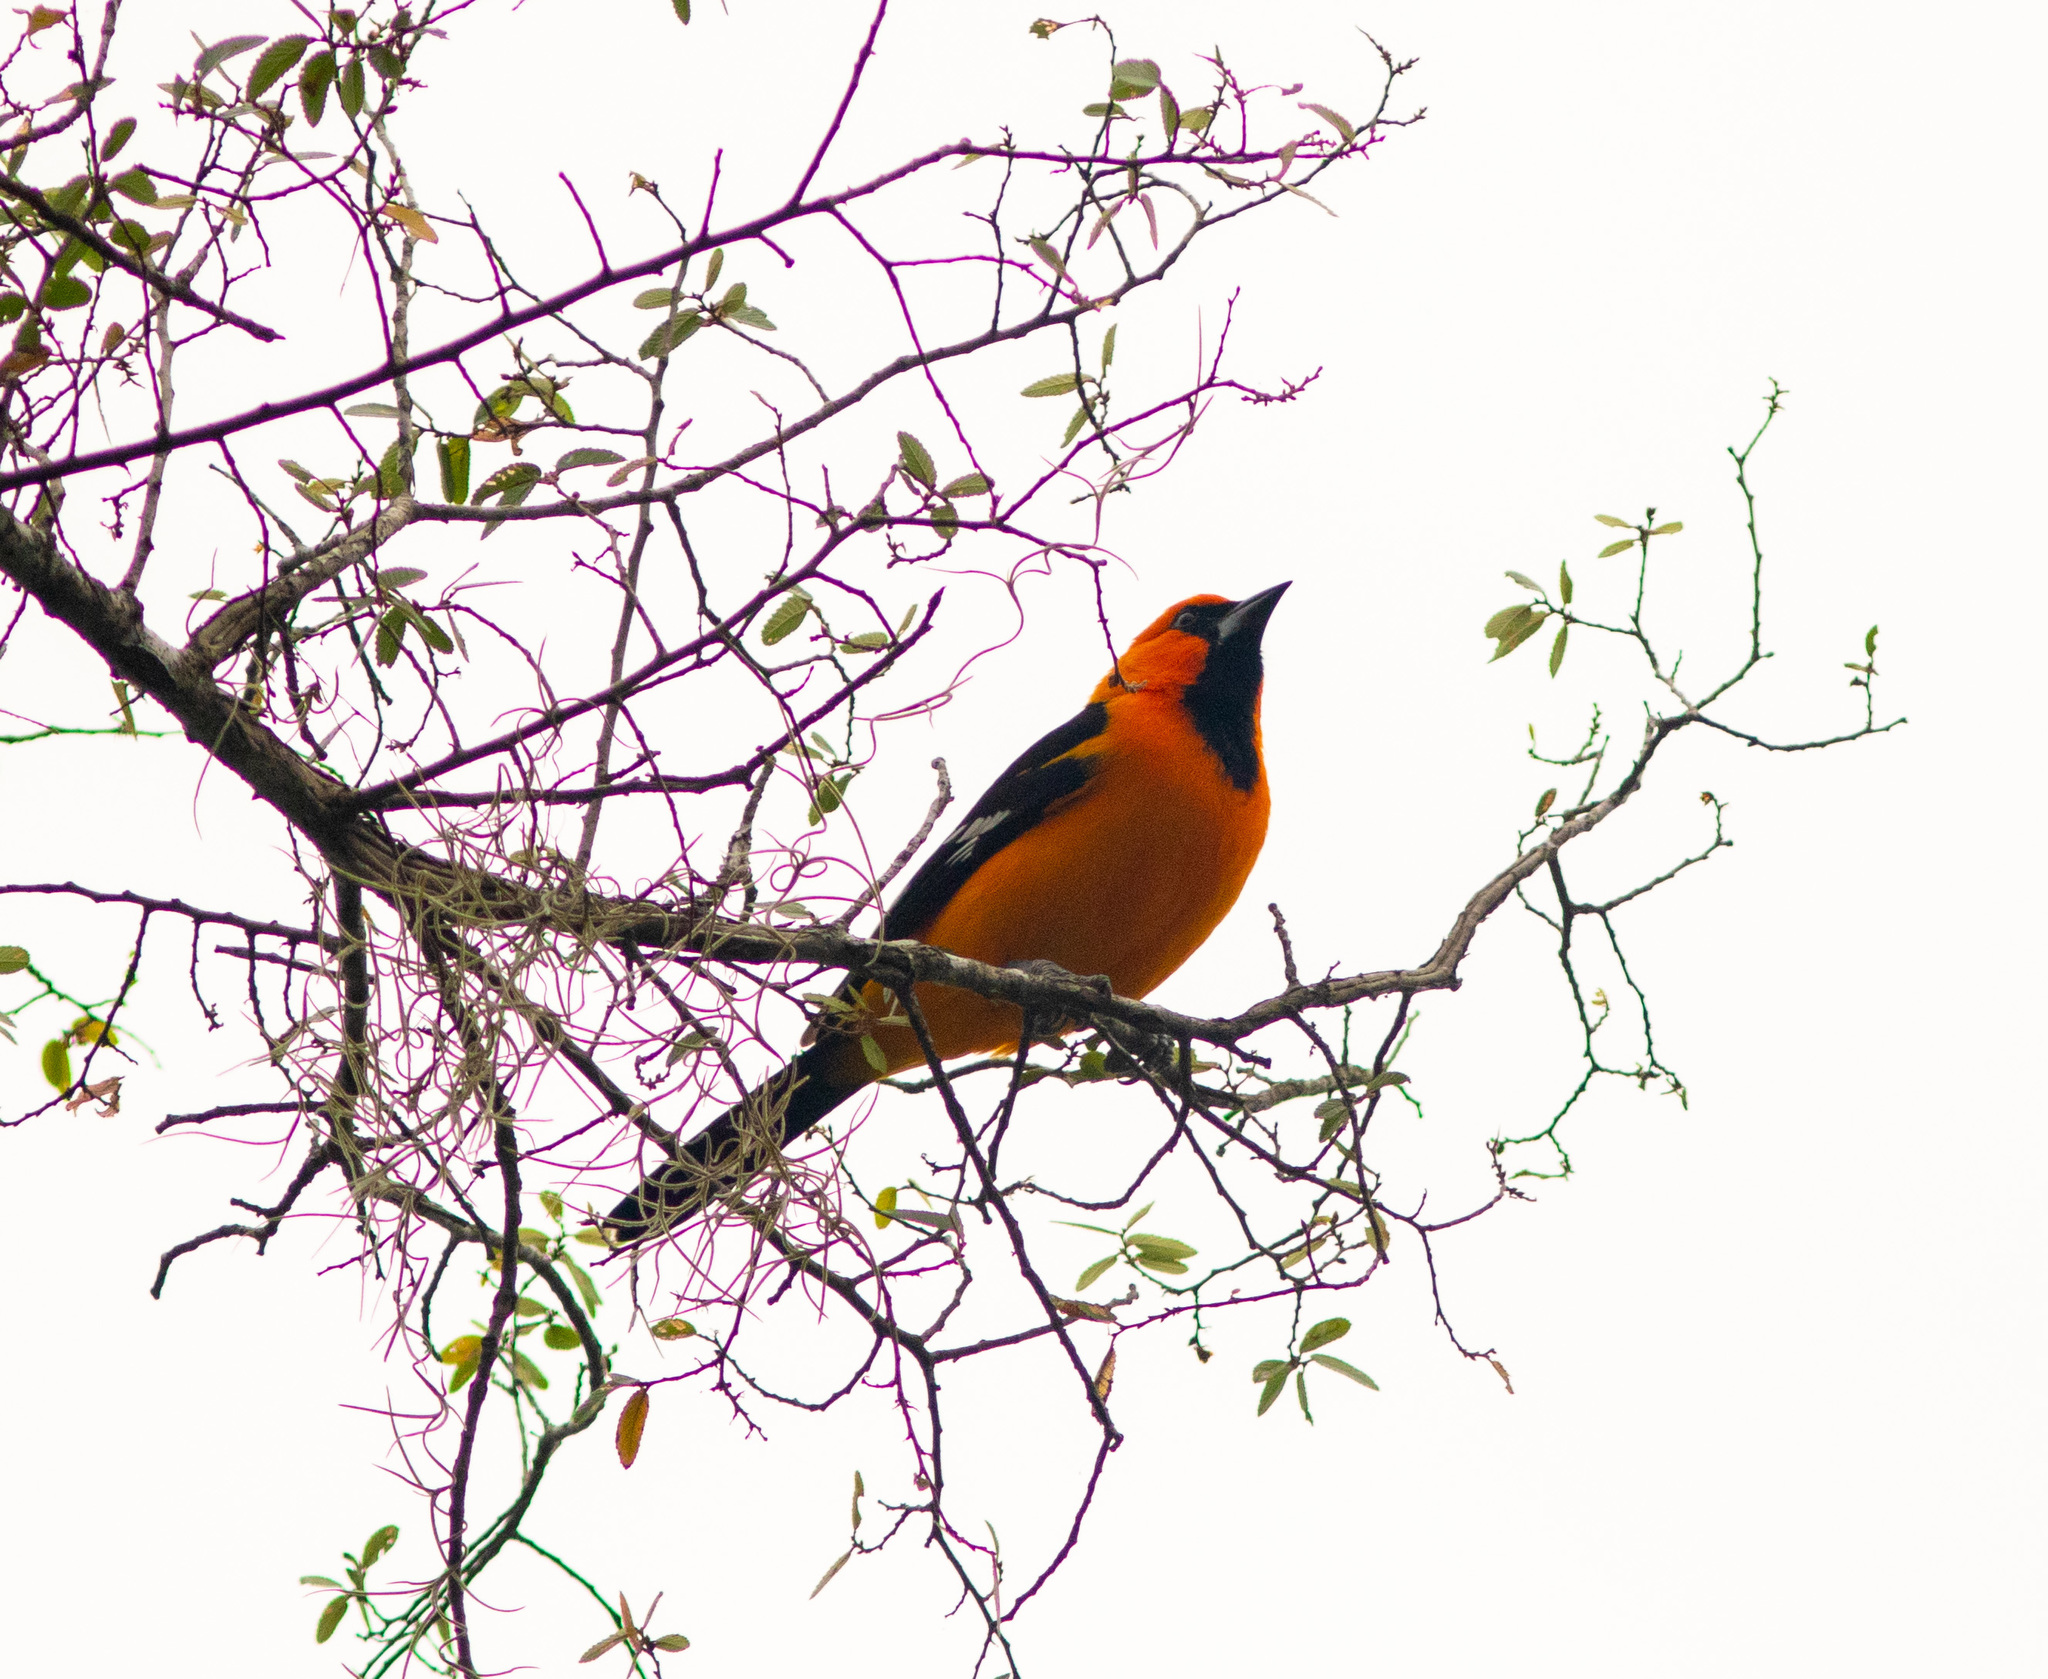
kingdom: Animalia
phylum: Chordata
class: Aves
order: Passeriformes
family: Icteridae
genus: Icterus
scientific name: Icterus gularis
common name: Altamira oriole
